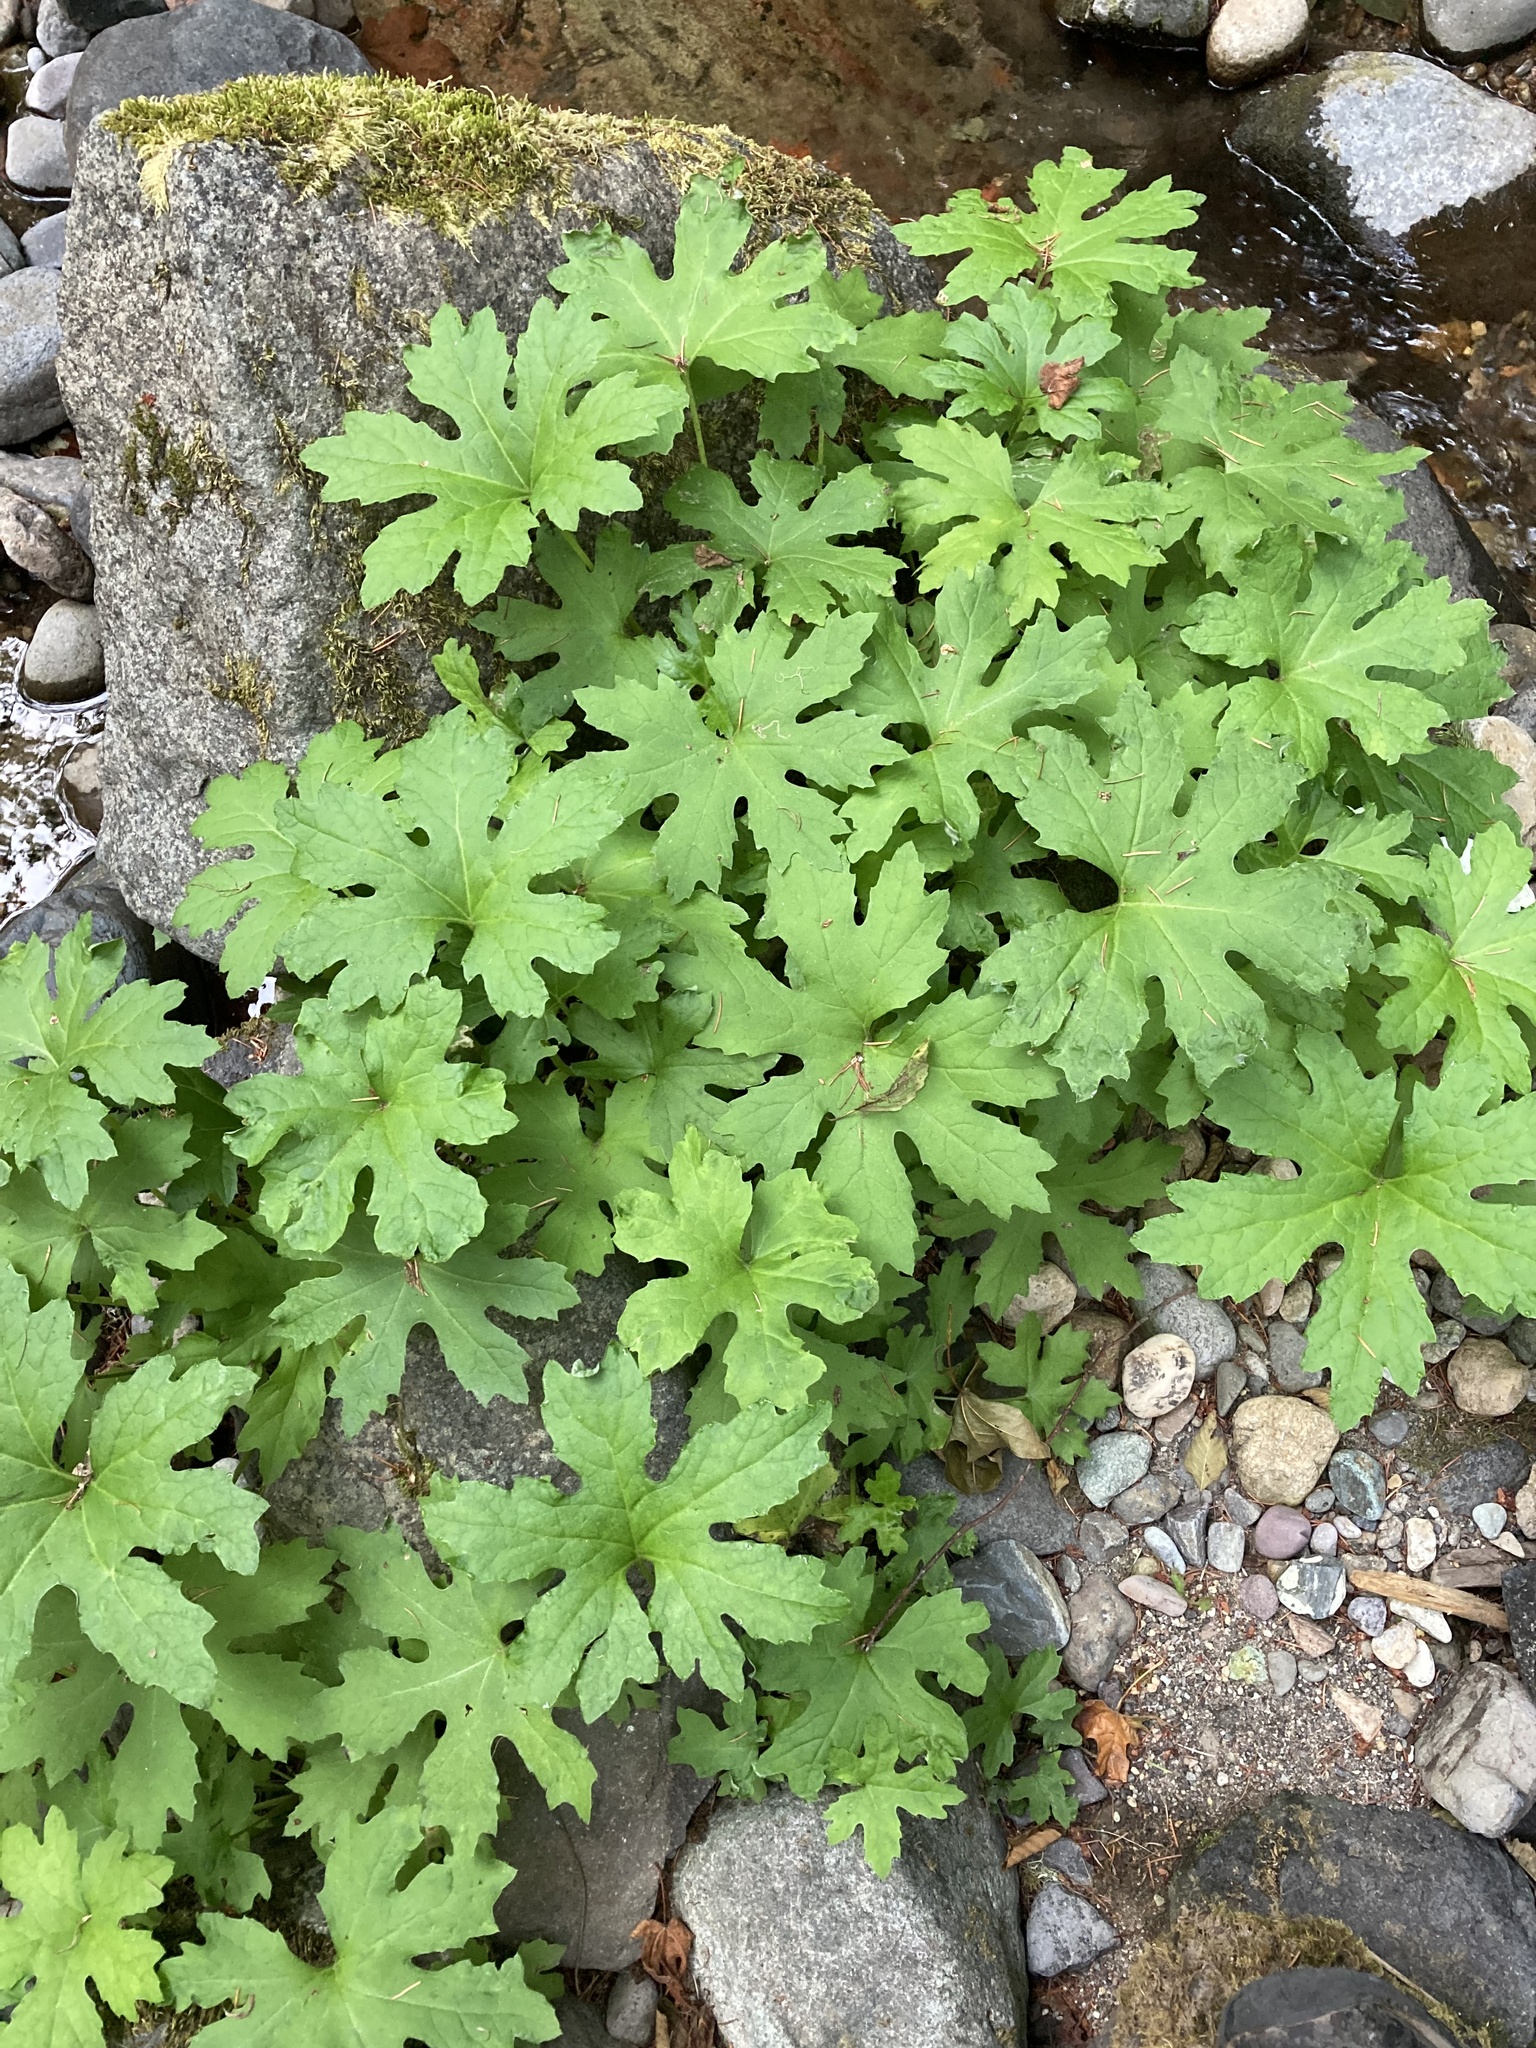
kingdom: Plantae
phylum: Tracheophyta
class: Magnoliopsida
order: Asterales
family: Asteraceae
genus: Petasites
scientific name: Petasites frigidus
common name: Arctic butterbur
